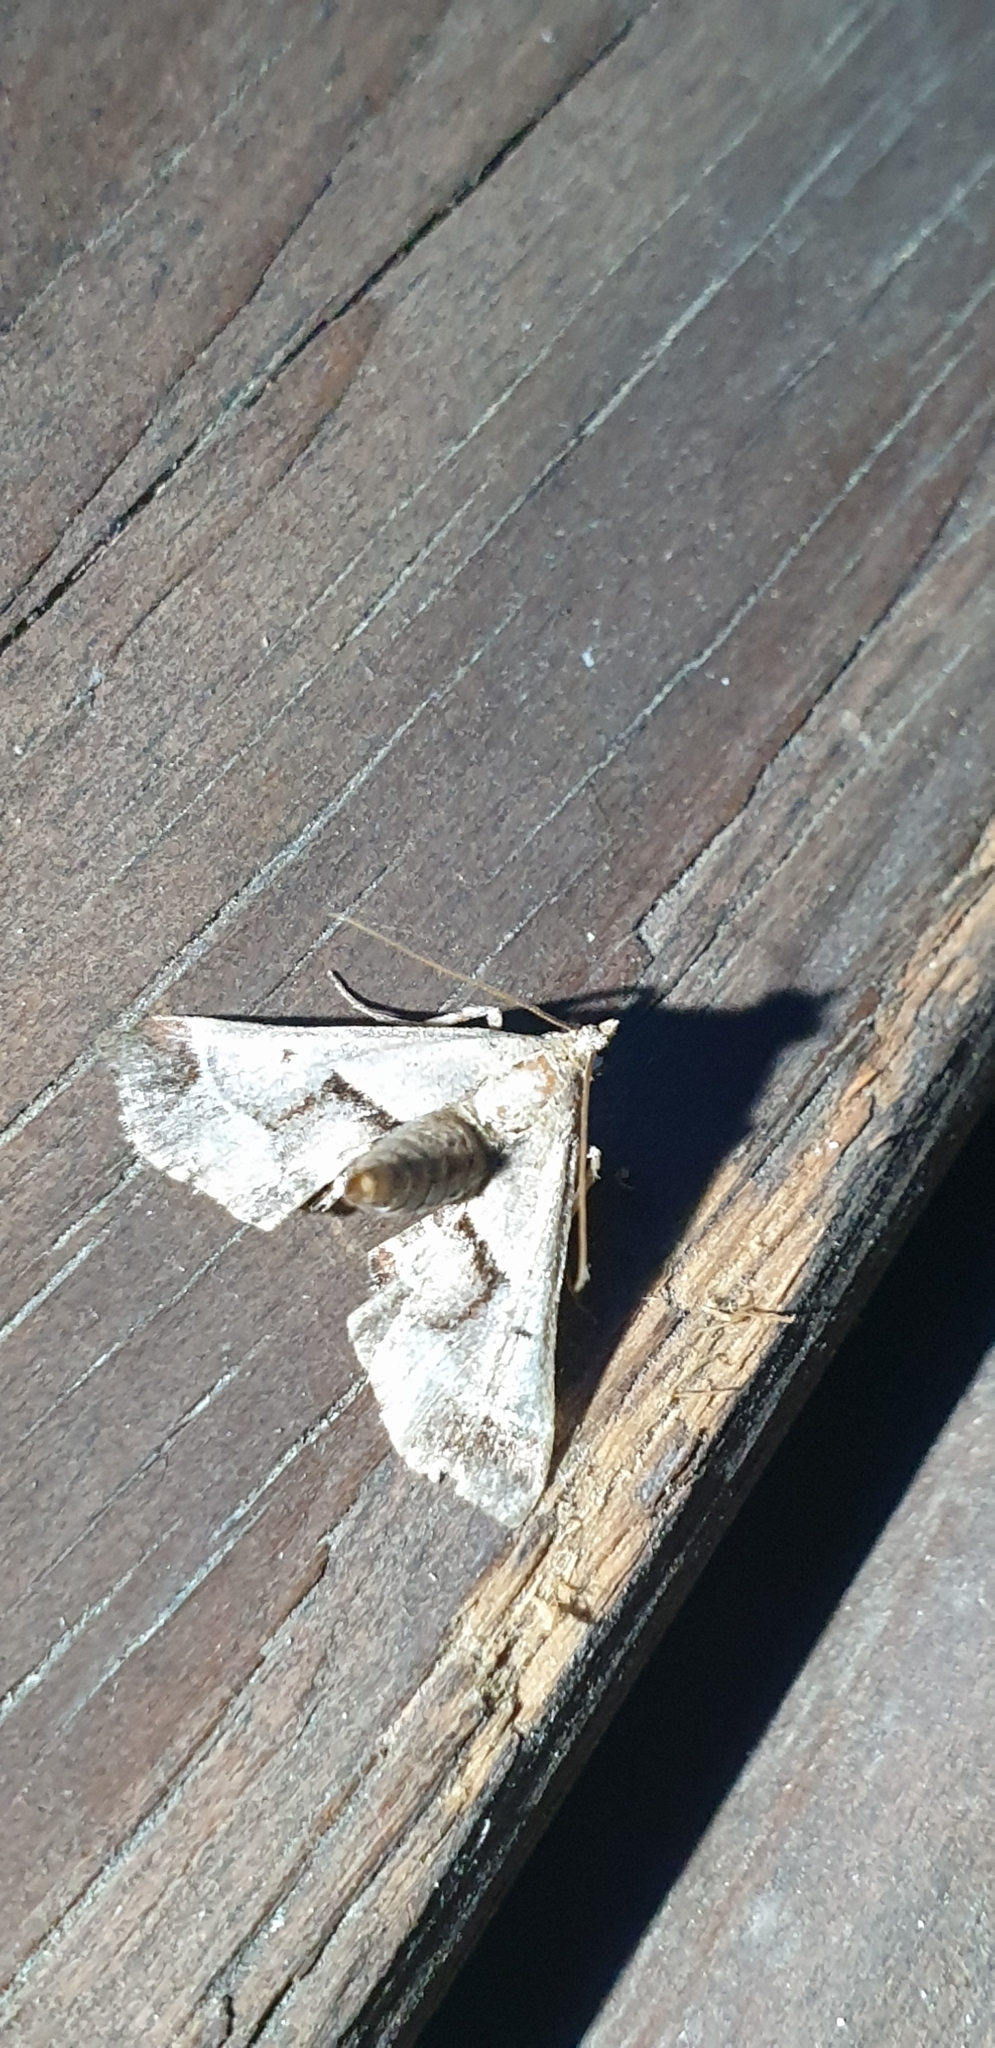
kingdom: Animalia
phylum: Arthropoda
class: Insecta
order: Lepidoptera
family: Pyralidae
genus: Gauna
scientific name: Gauna aegusalis
